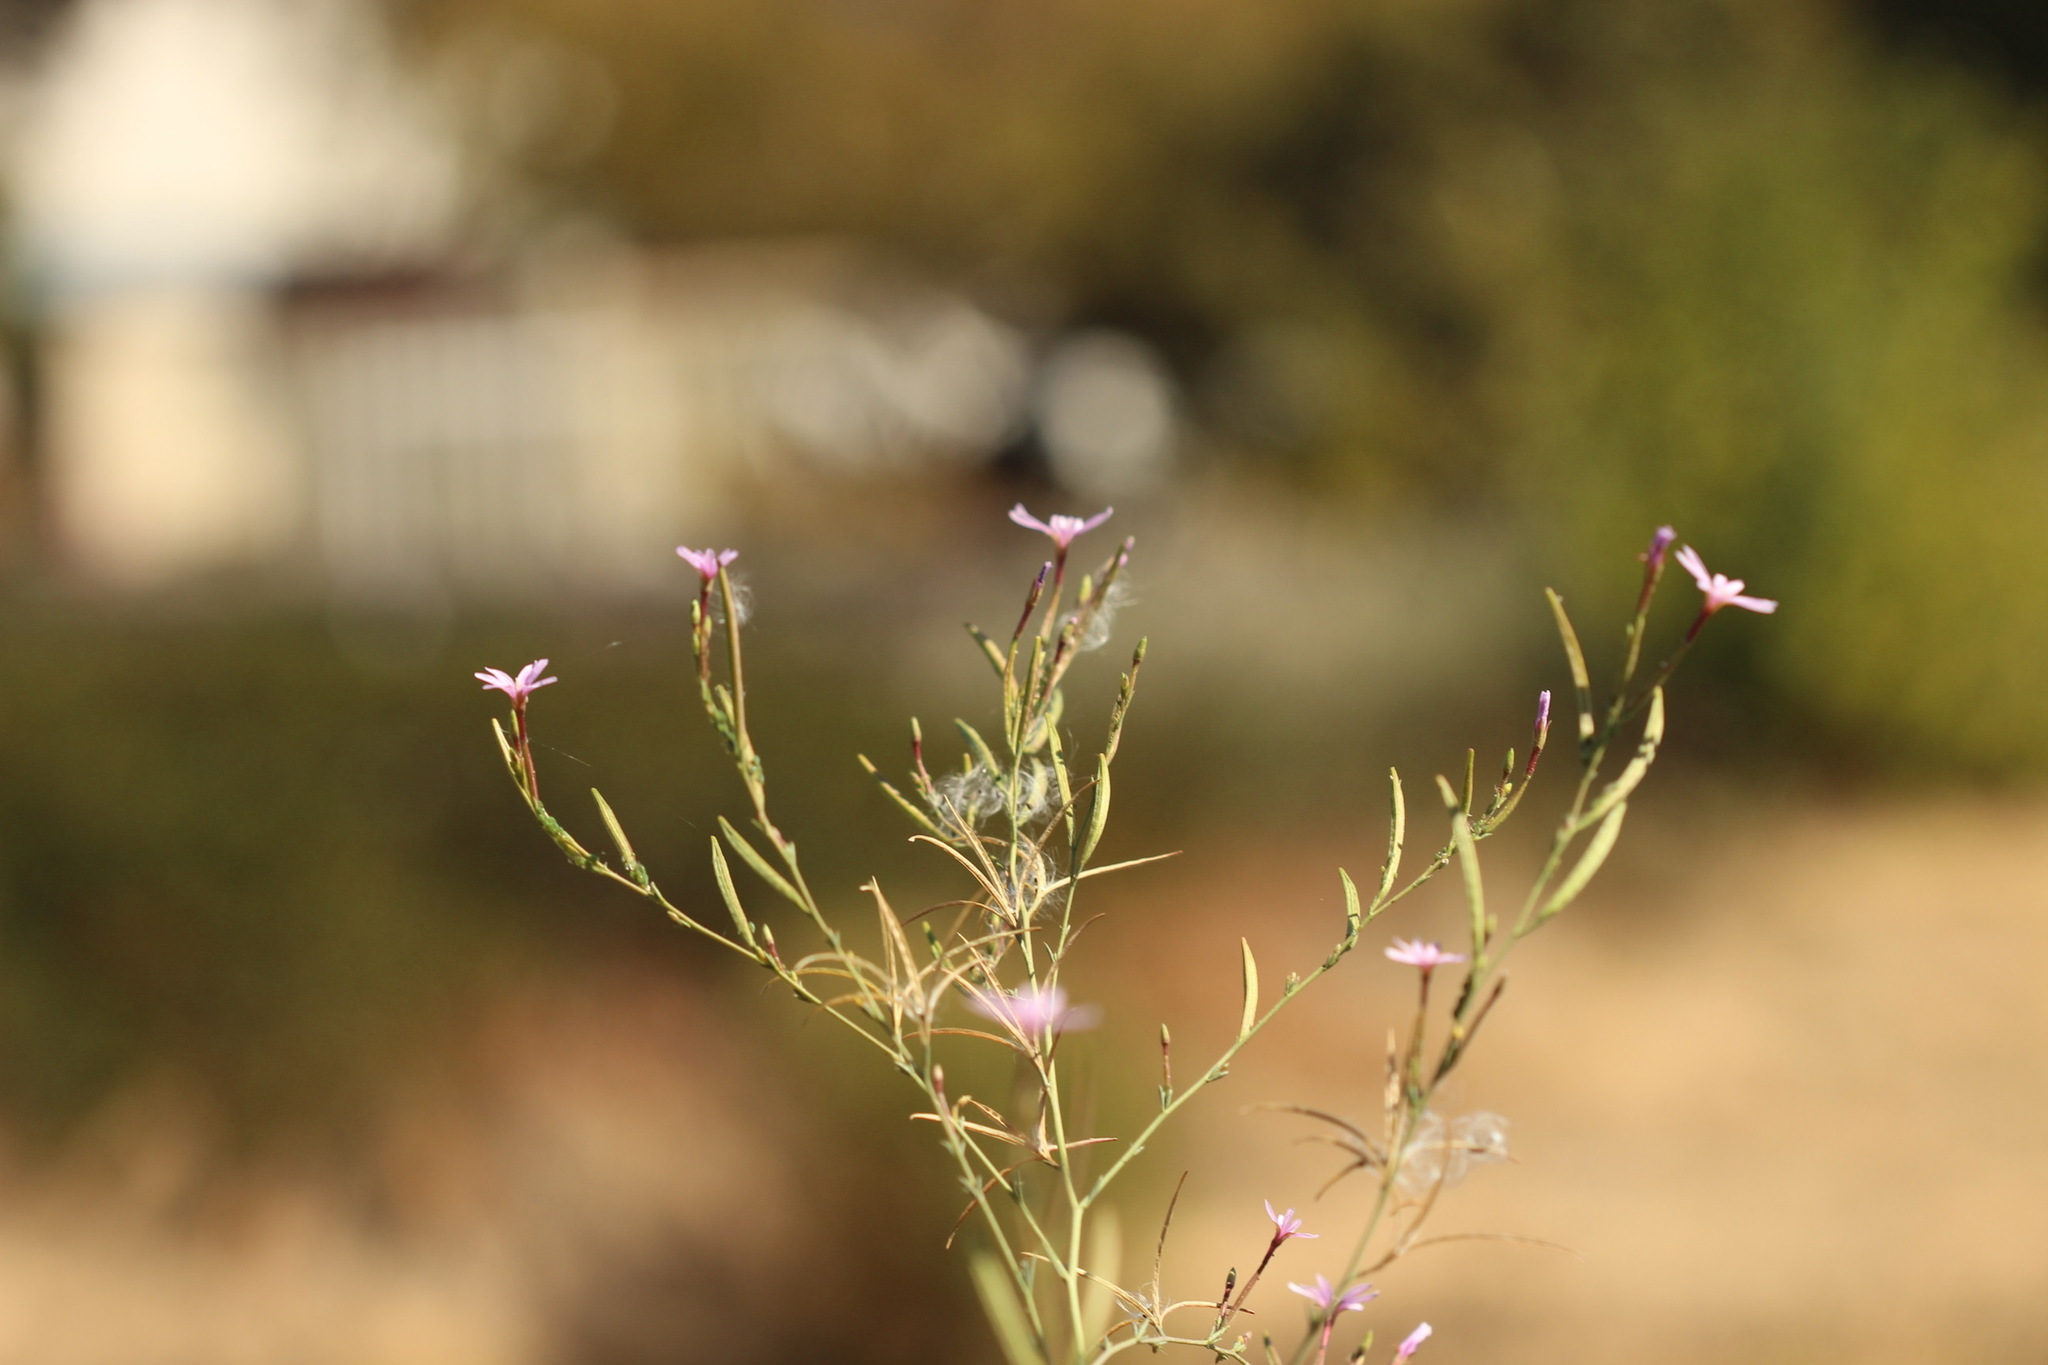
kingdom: Plantae
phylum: Tracheophyta
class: Magnoliopsida
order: Myrtales
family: Onagraceae
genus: Epilobium
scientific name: Epilobium brachycarpum
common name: Annual willowherb
